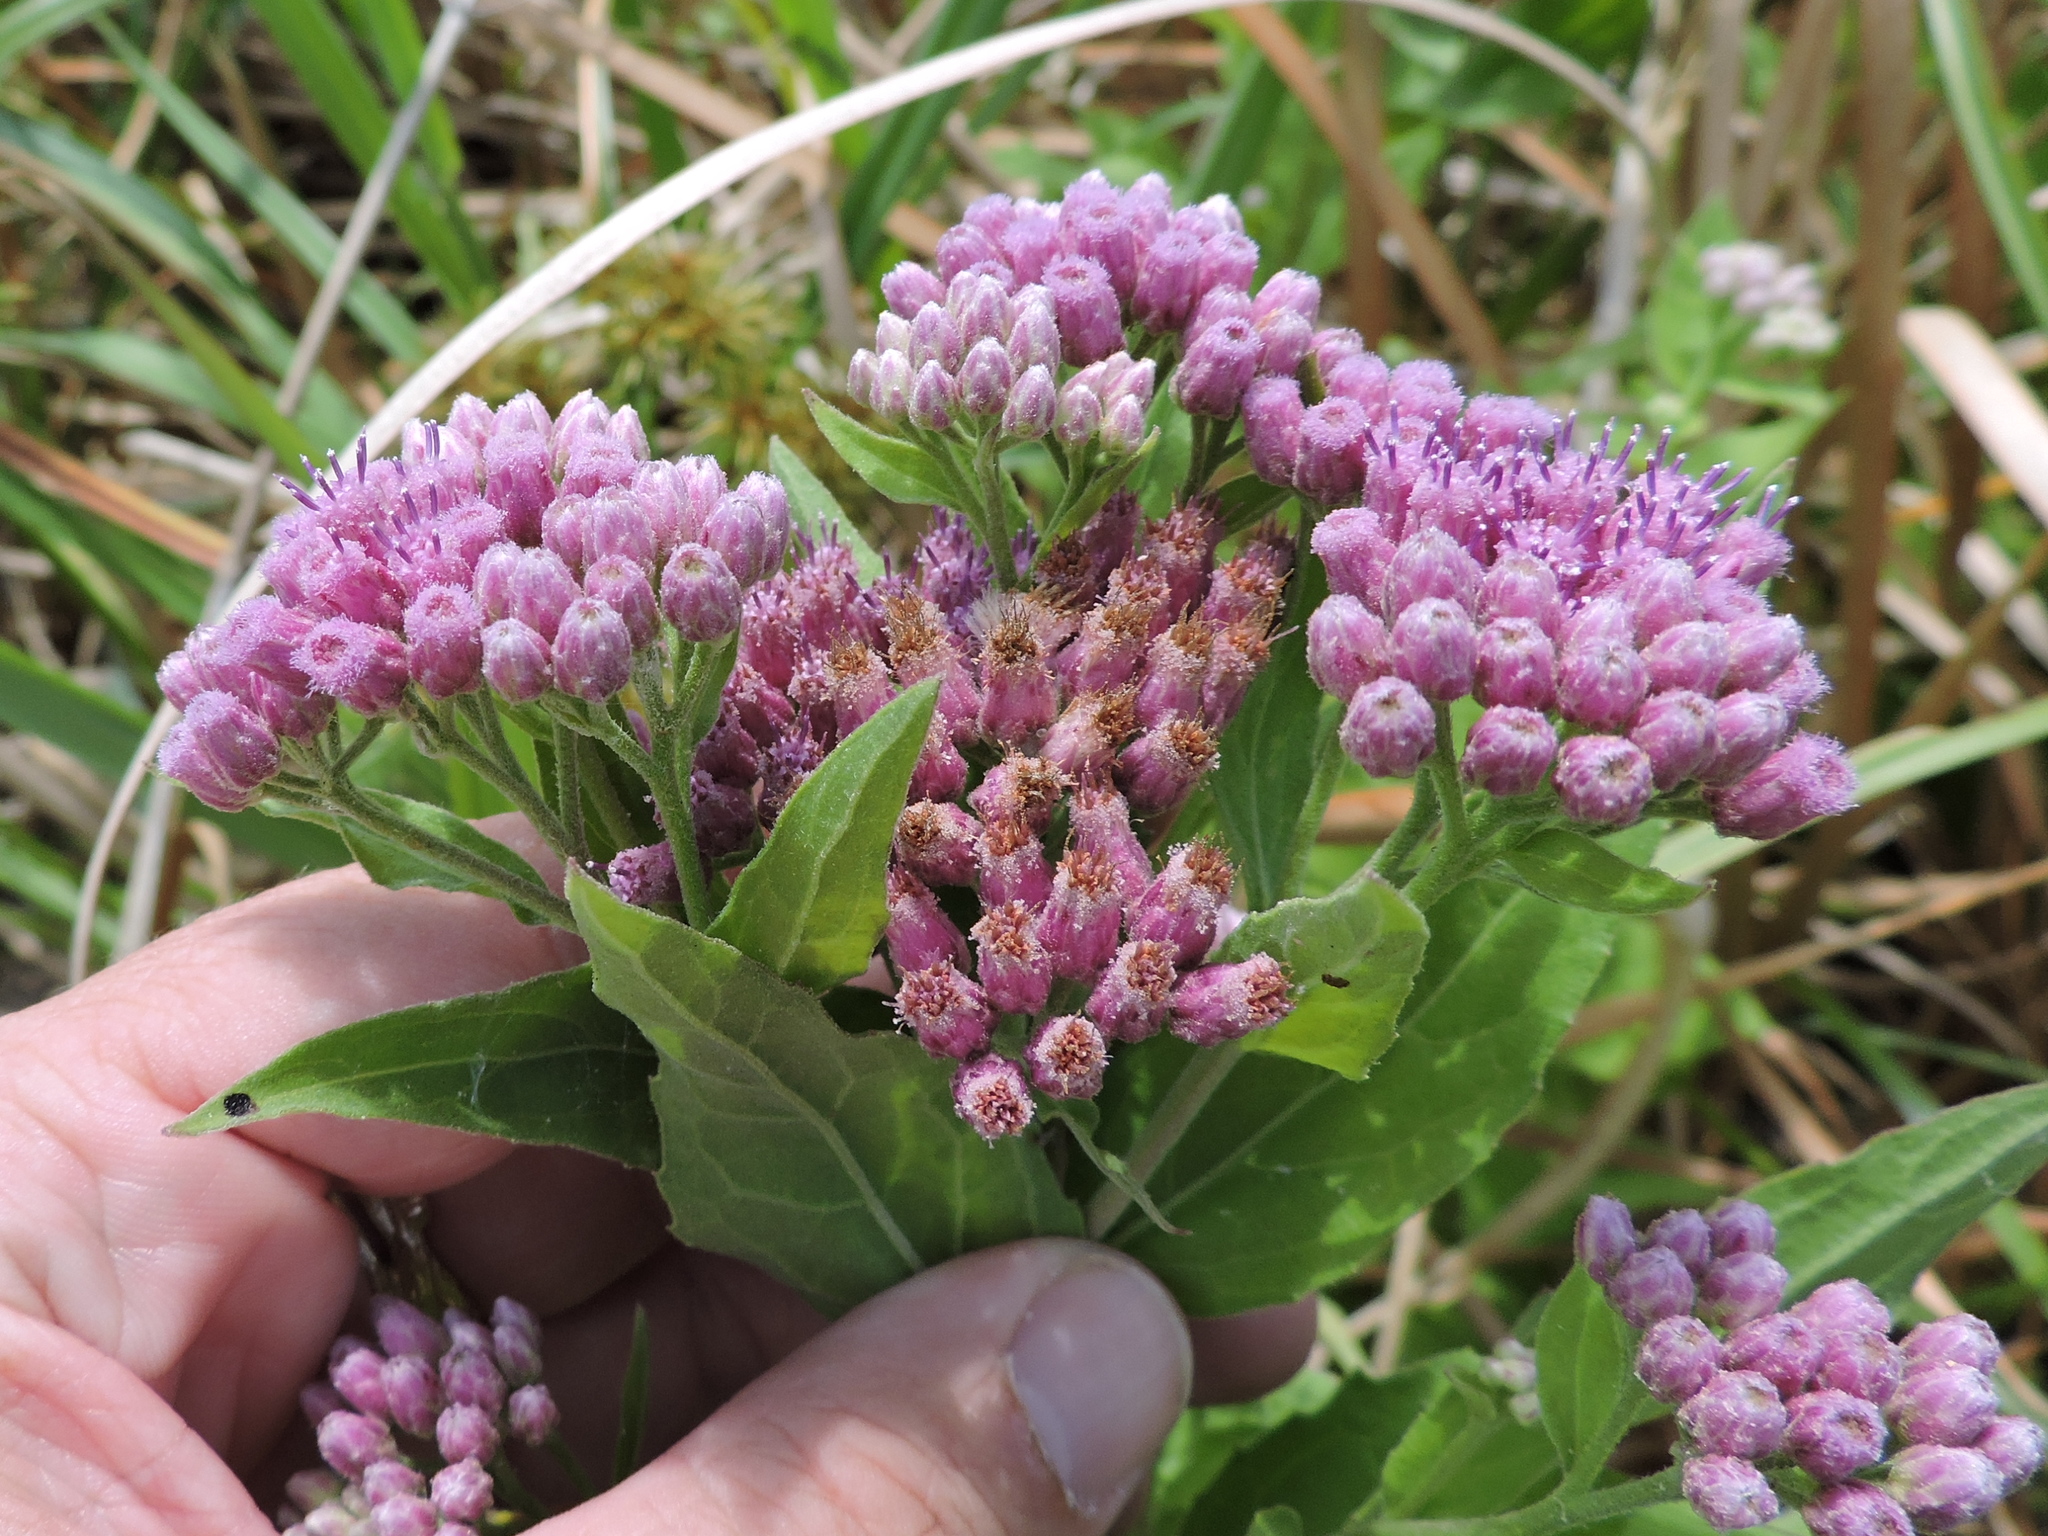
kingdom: Plantae
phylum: Tracheophyta
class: Magnoliopsida
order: Asterales
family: Asteraceae
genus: Pluchea
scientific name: Pluchea odorata
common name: Saltmarsh fleabane
